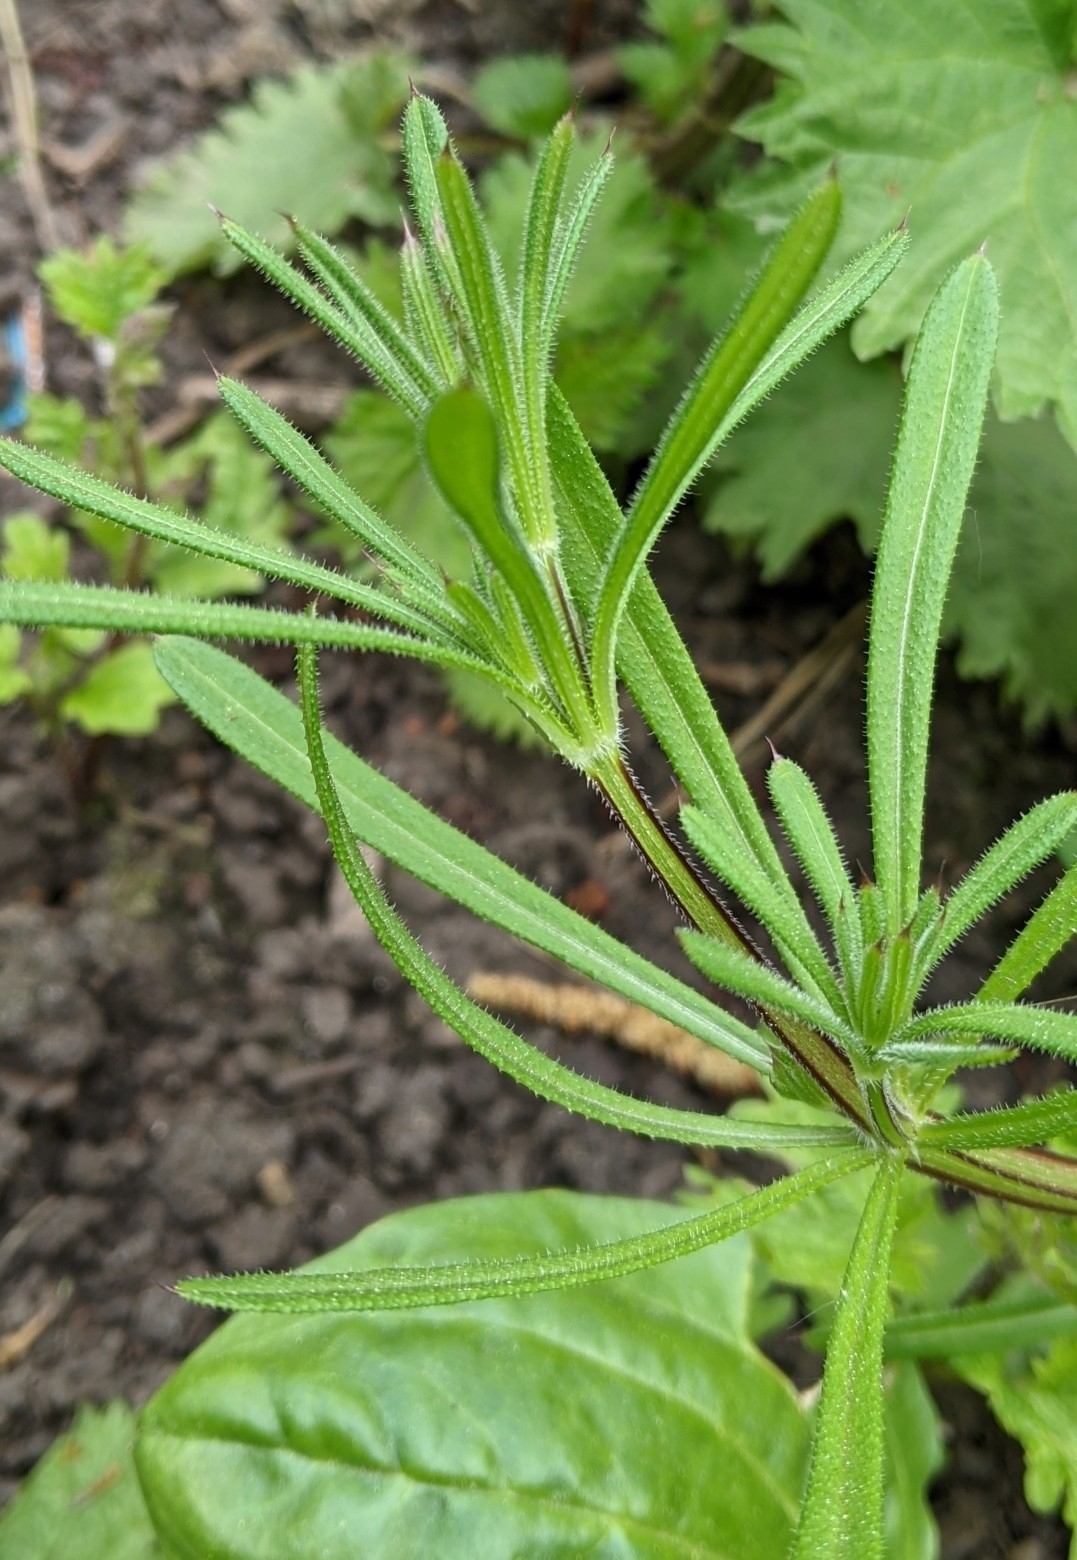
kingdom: Plantae
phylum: Tracheophyta
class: Magnoliopsida
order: Gentianales
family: Rubiaceae
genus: Galium
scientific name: Galium aparine
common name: Cleavers
